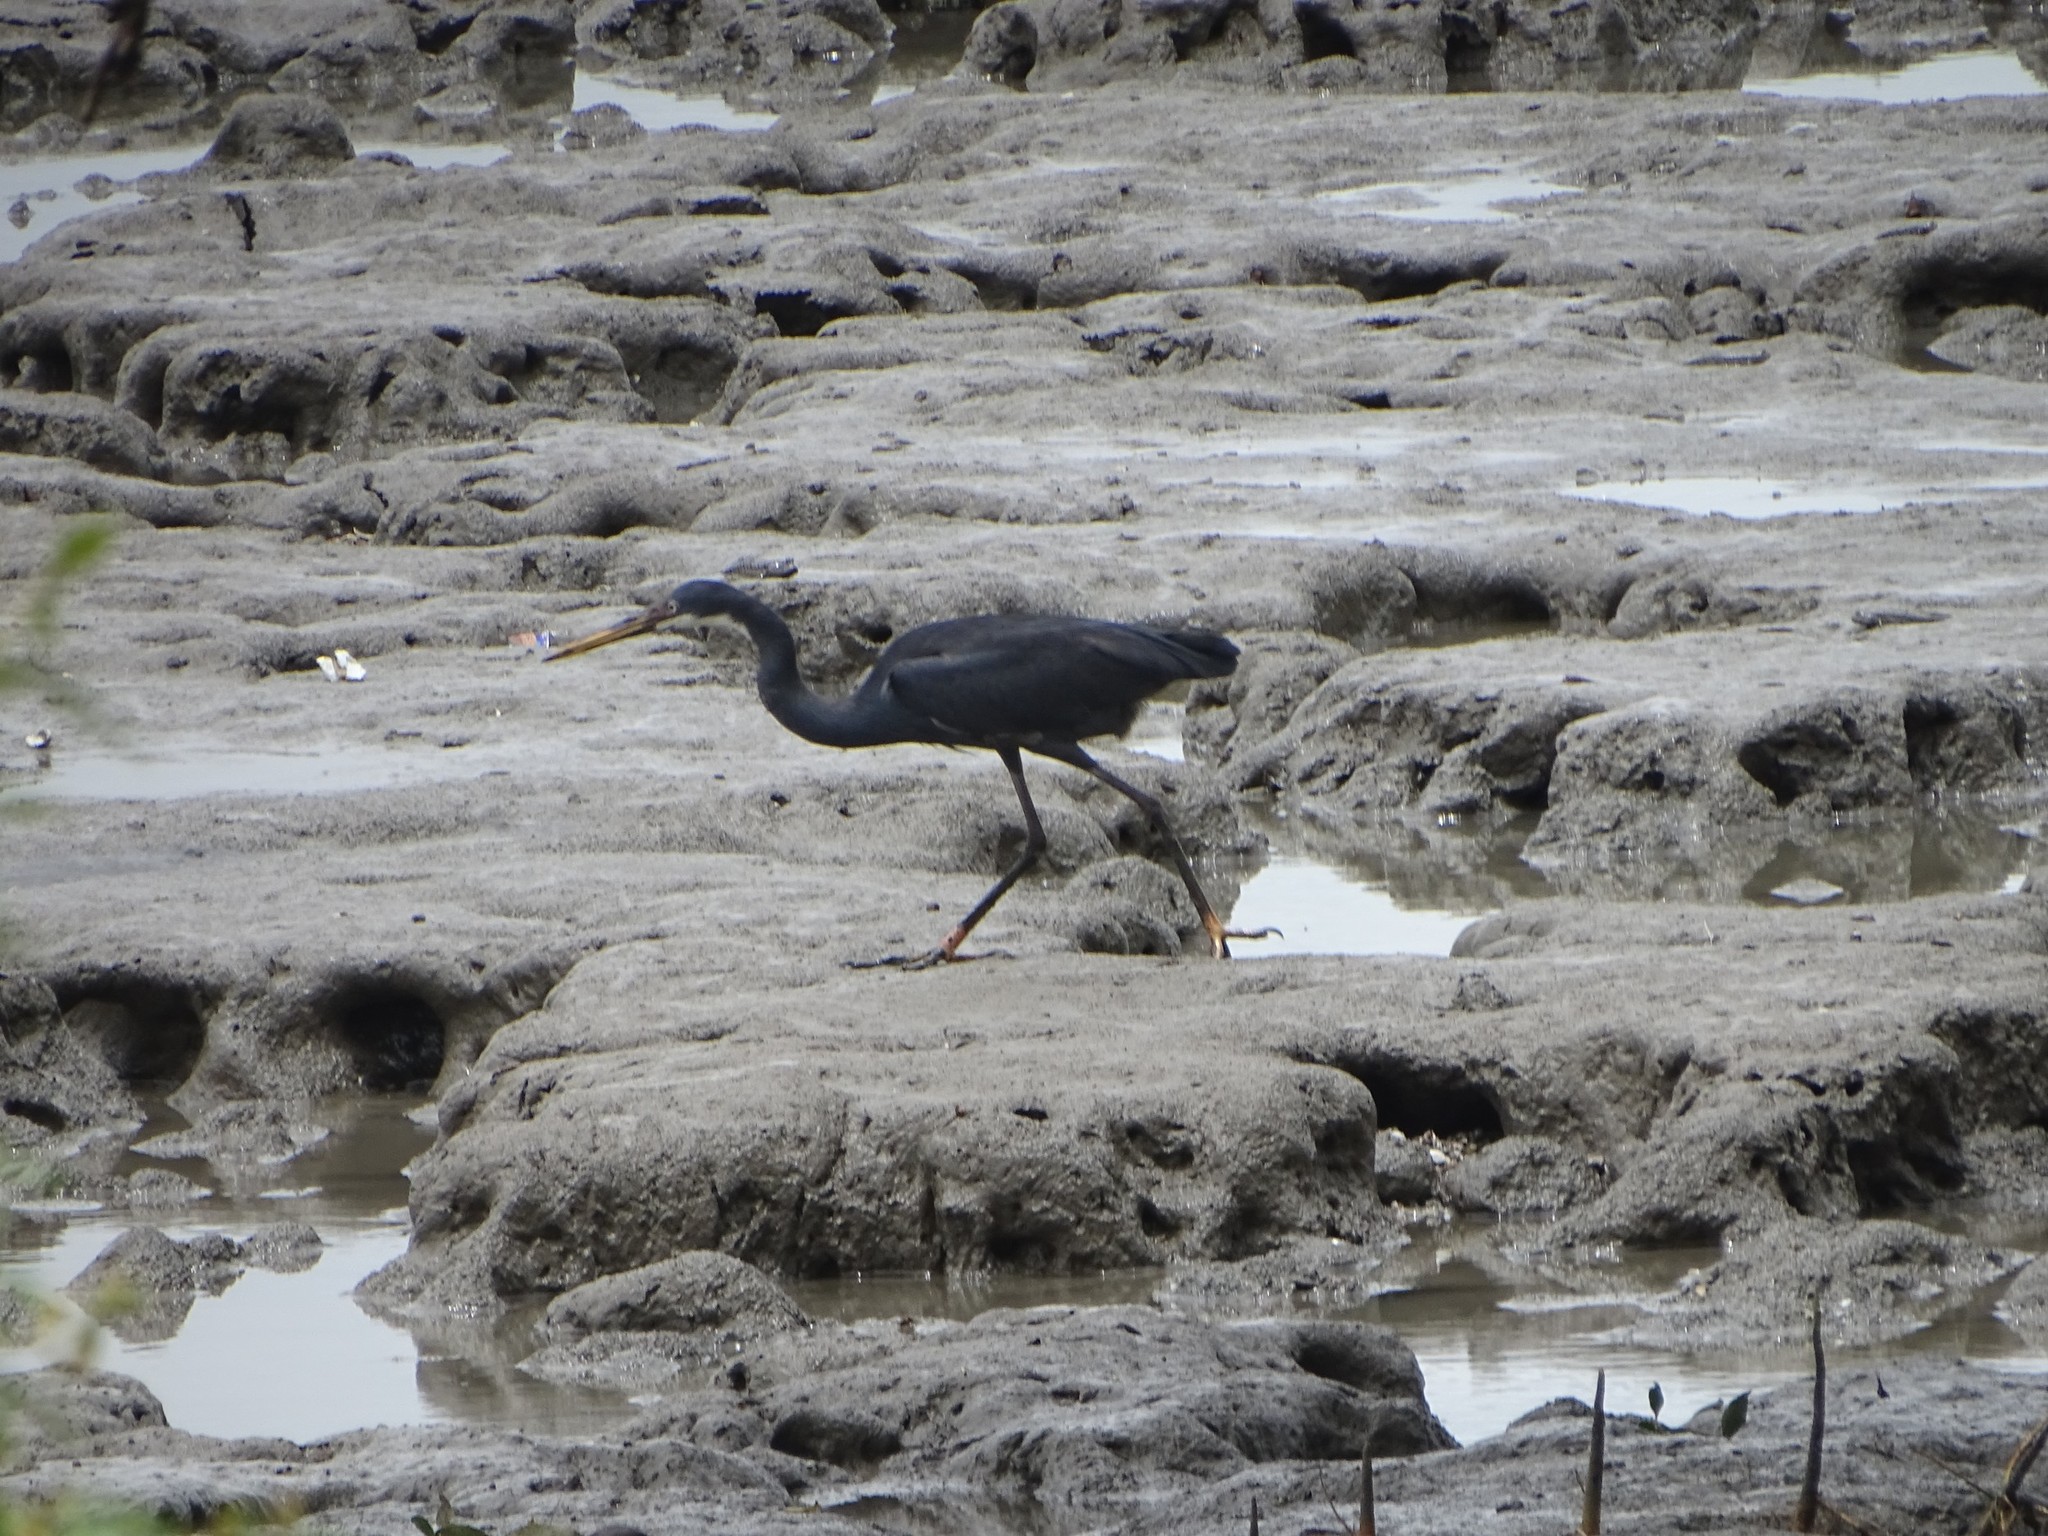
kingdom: Animalia
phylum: Chordata
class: Aves
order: Pelecaniformes
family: Ardeidae
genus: Egretta
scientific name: Egretta gularis
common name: Western reef-heron
